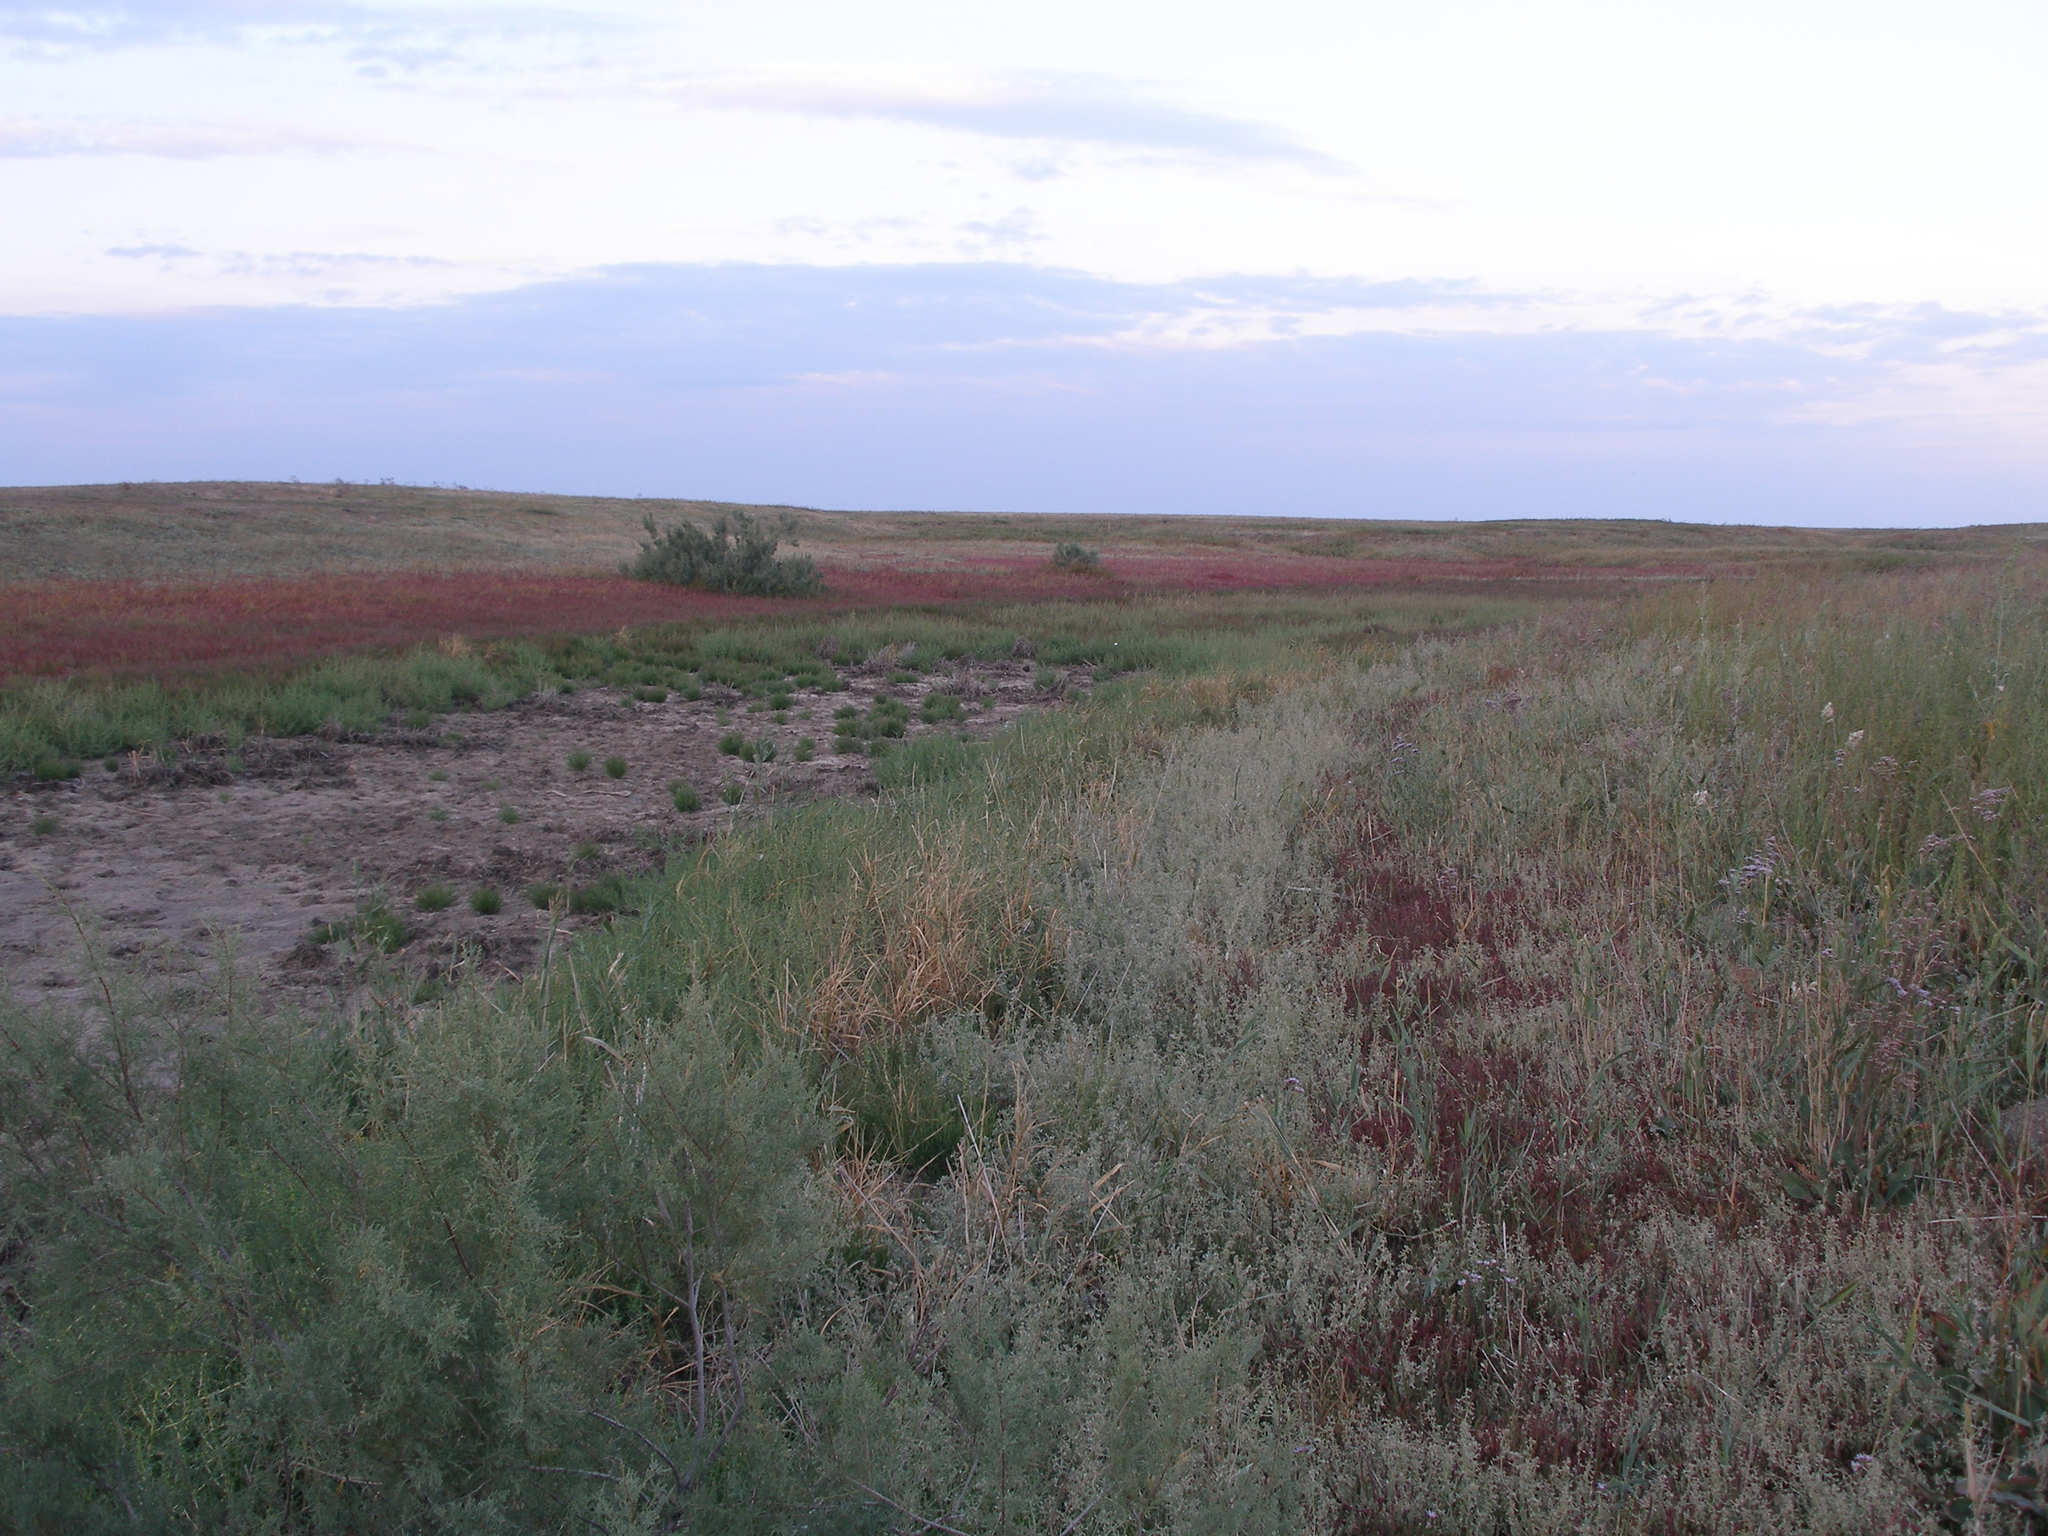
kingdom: Plantae
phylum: Tracheophyta
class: Magnoliopsida
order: Caryophyllales
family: Tamaricaceae
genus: Tamarix
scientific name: Tamarix ramosissima
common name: Pink tamarisk
